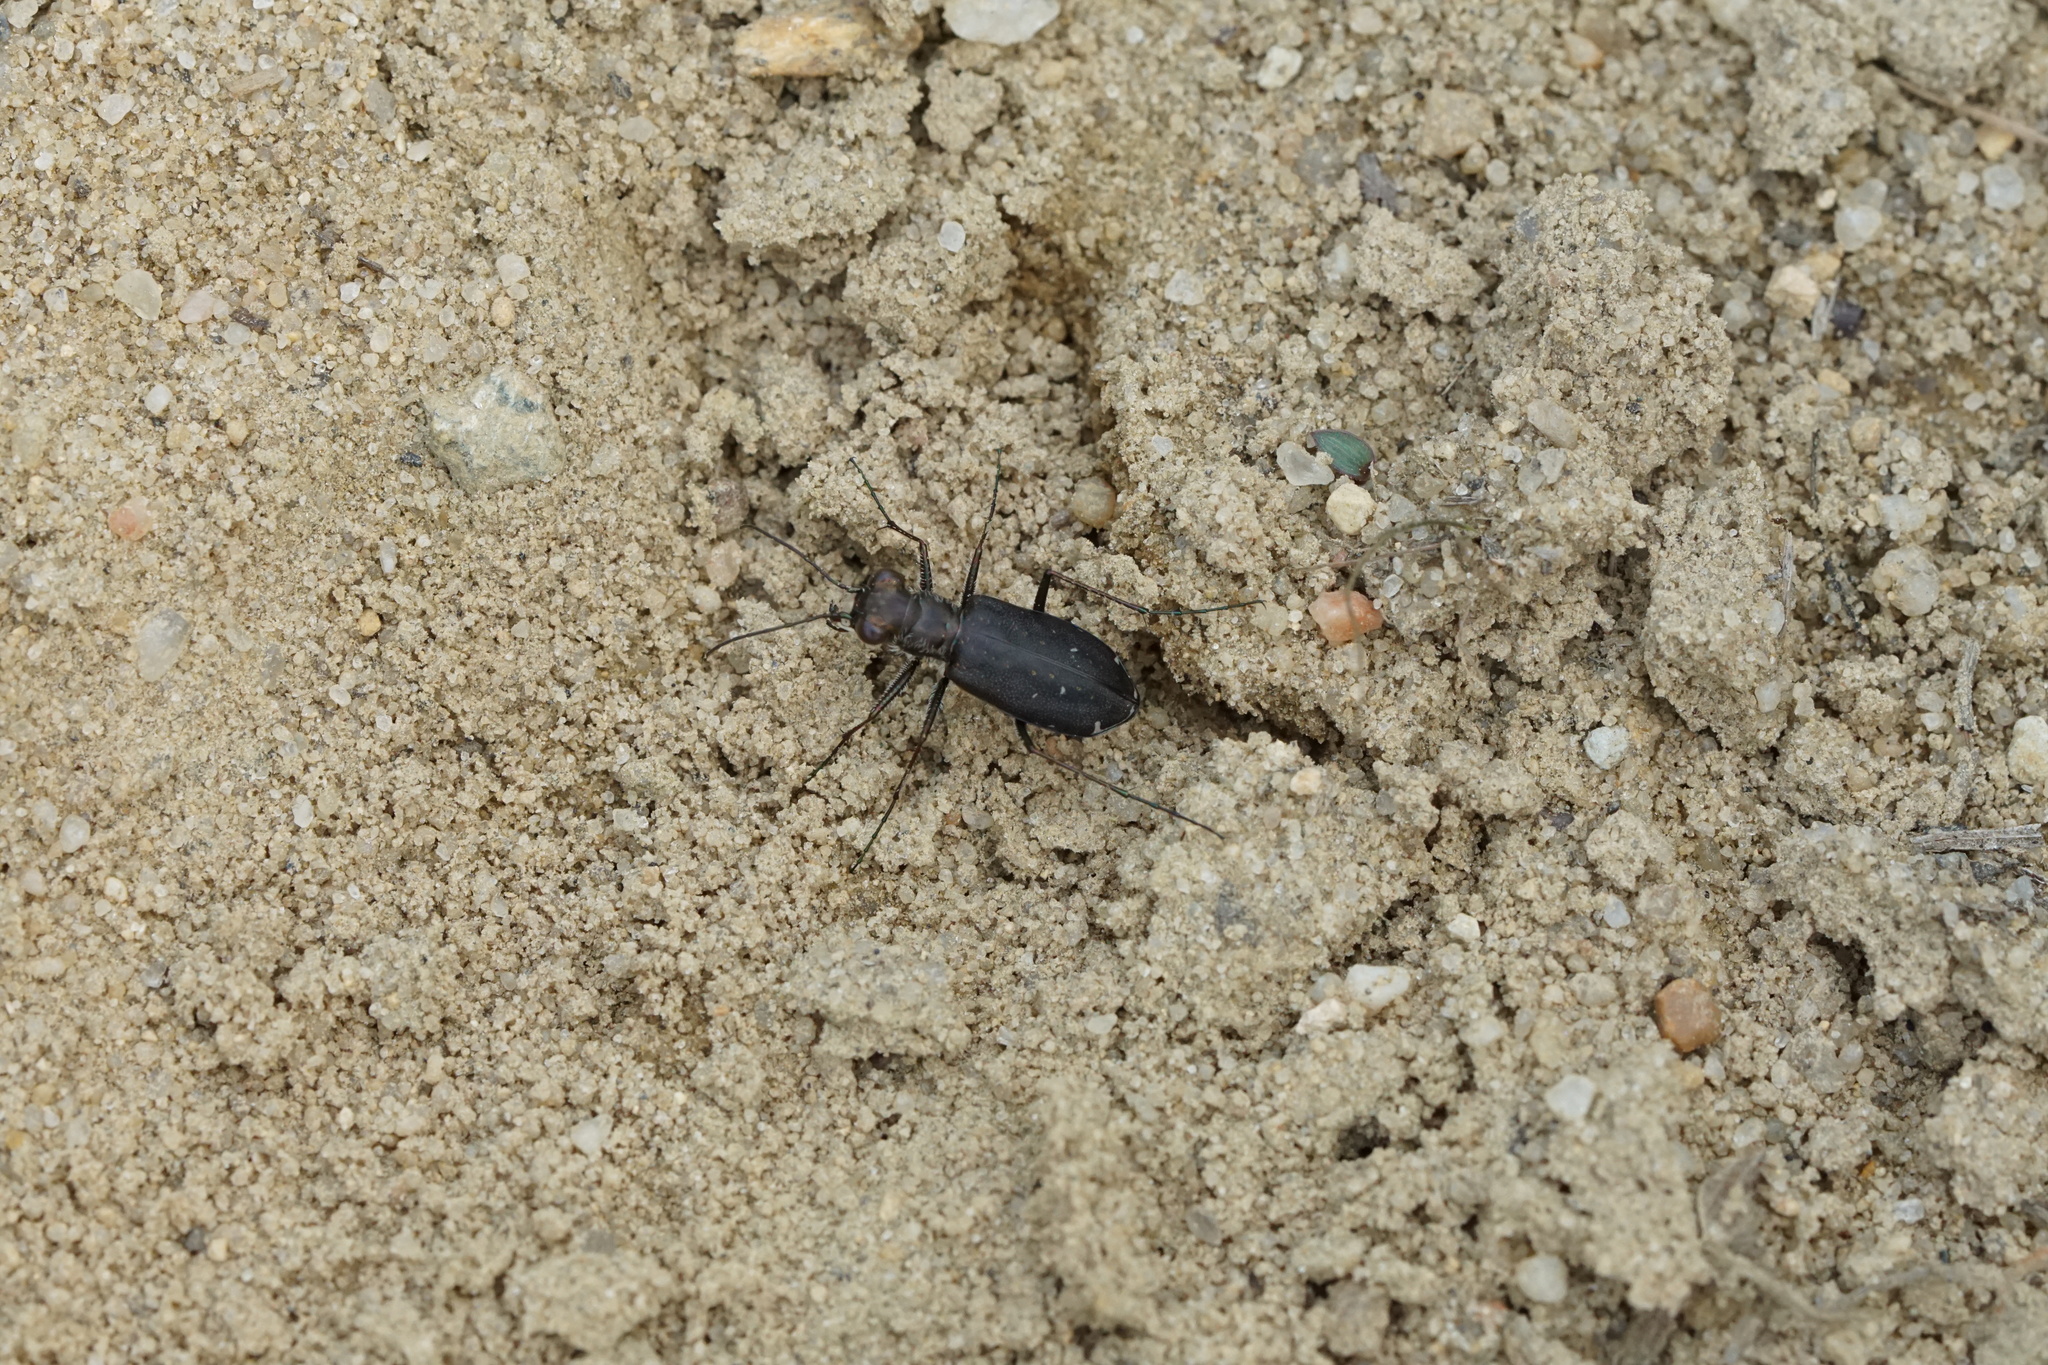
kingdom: Animalia
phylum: Arthropoda
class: Insecta
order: Coleoptera
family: Carabidae
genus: Cicindela
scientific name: Cicindela punctulata
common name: Punctured tiger beetle
